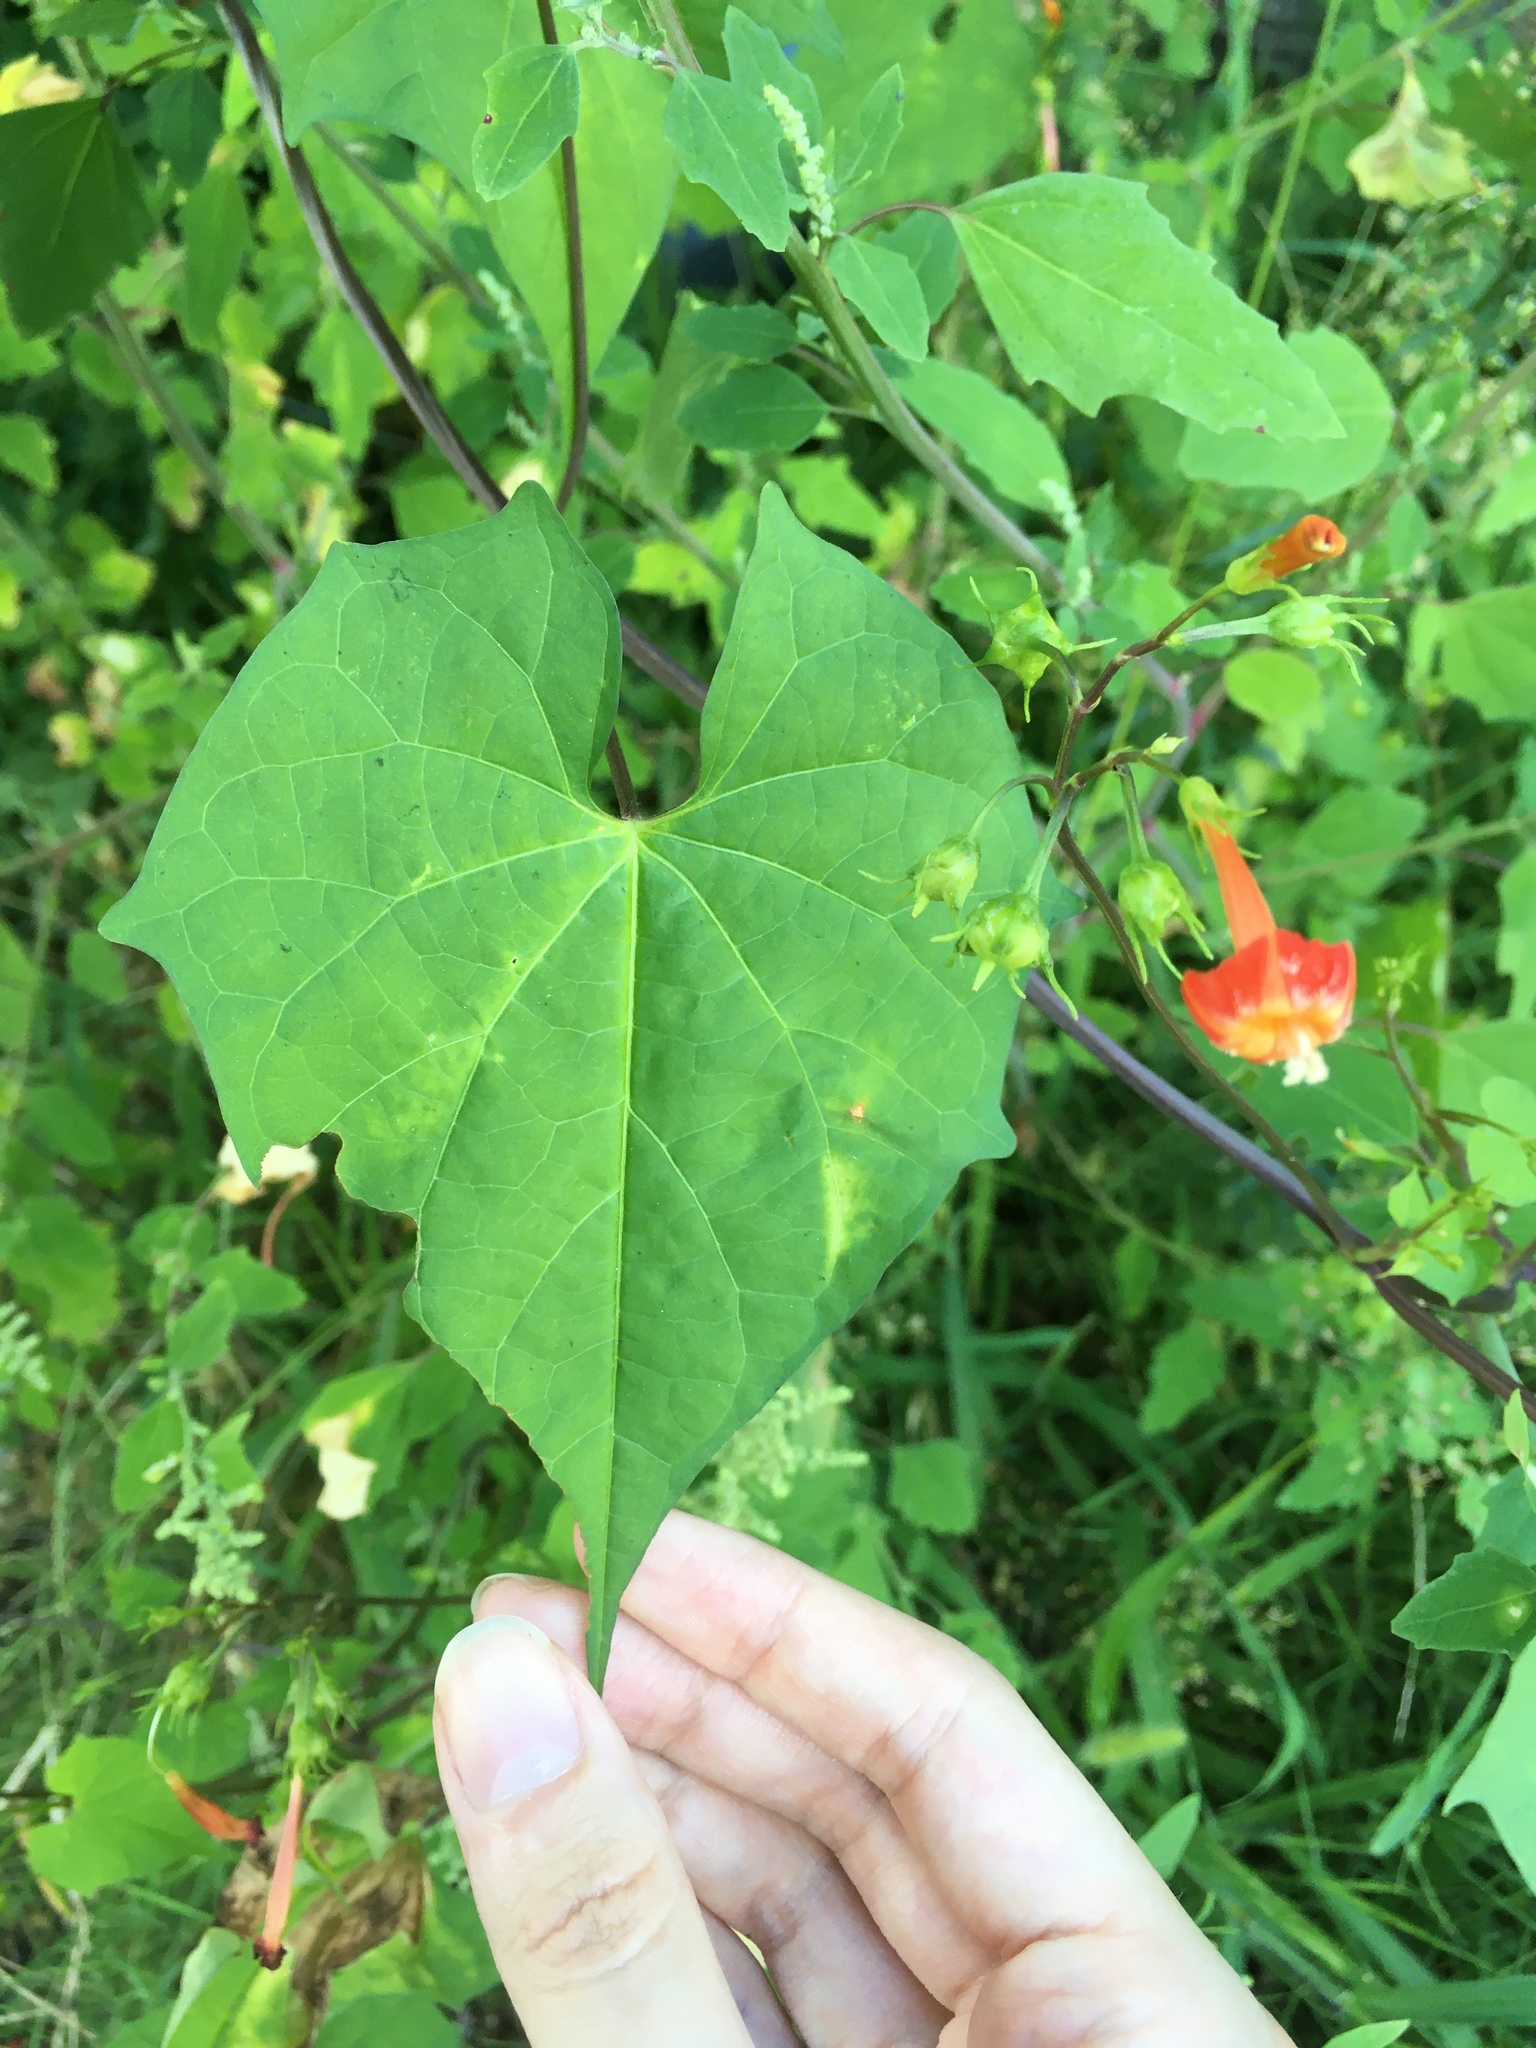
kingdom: Plantae
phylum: Tracheophyta
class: Magnoliopsida
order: Solanales
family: Convolvulaceae
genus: Ipomoea
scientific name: Ipomoea coccinea
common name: Red morning-glory
